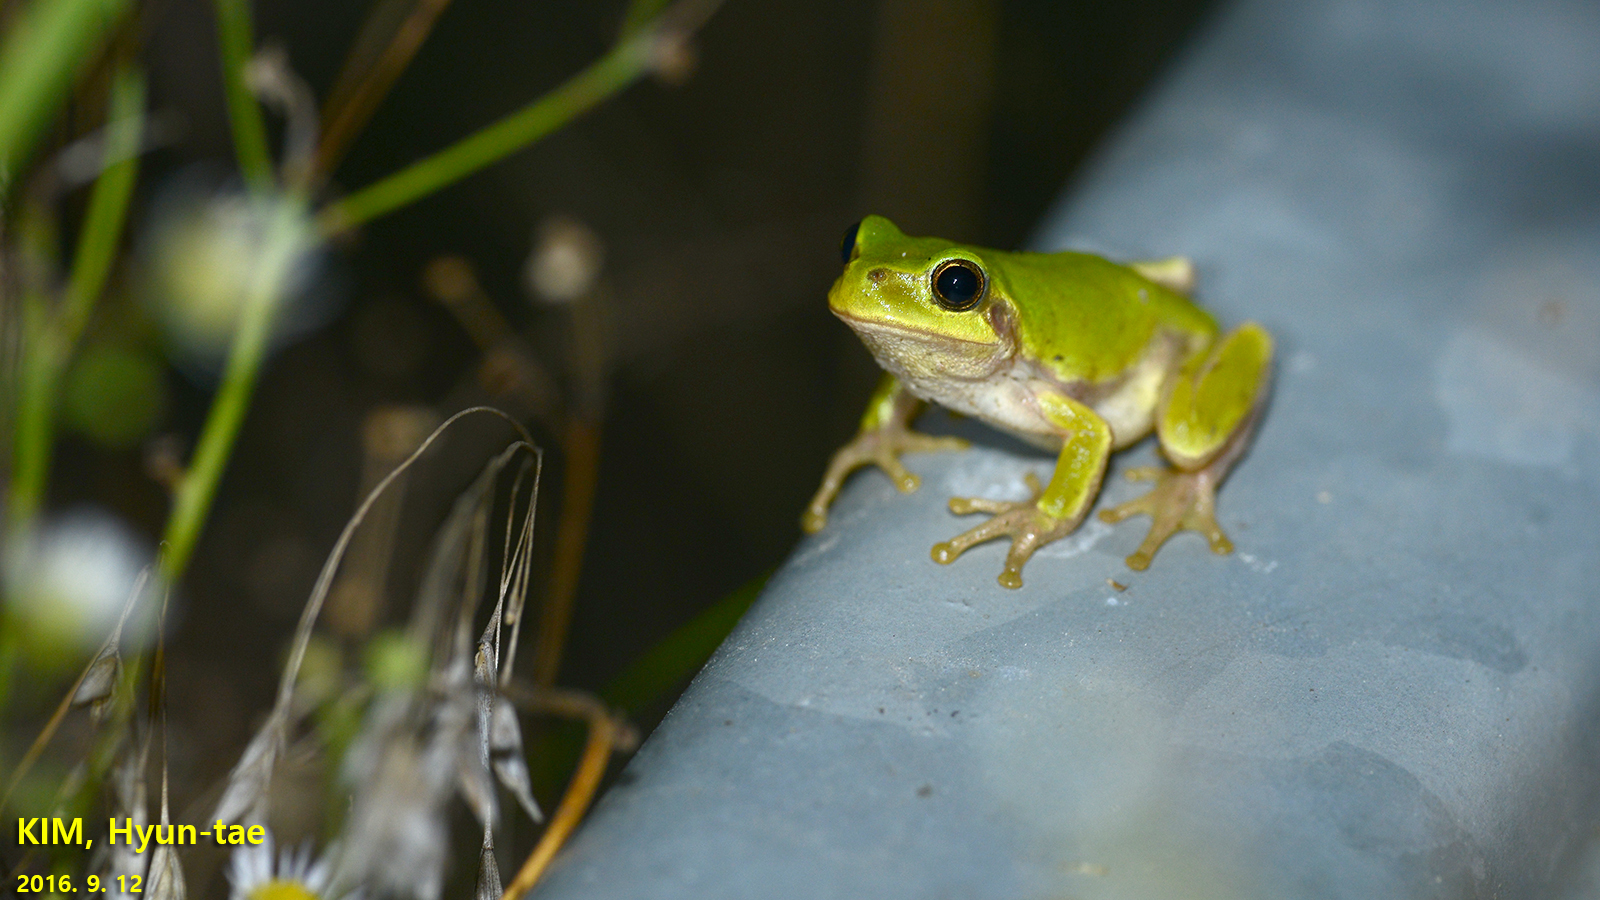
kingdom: Animalia
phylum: Chordata
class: Amphibia
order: Anura
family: Hylidae
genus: Dryophytes
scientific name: Dryophytes japonicus
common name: Japanese treefrog
